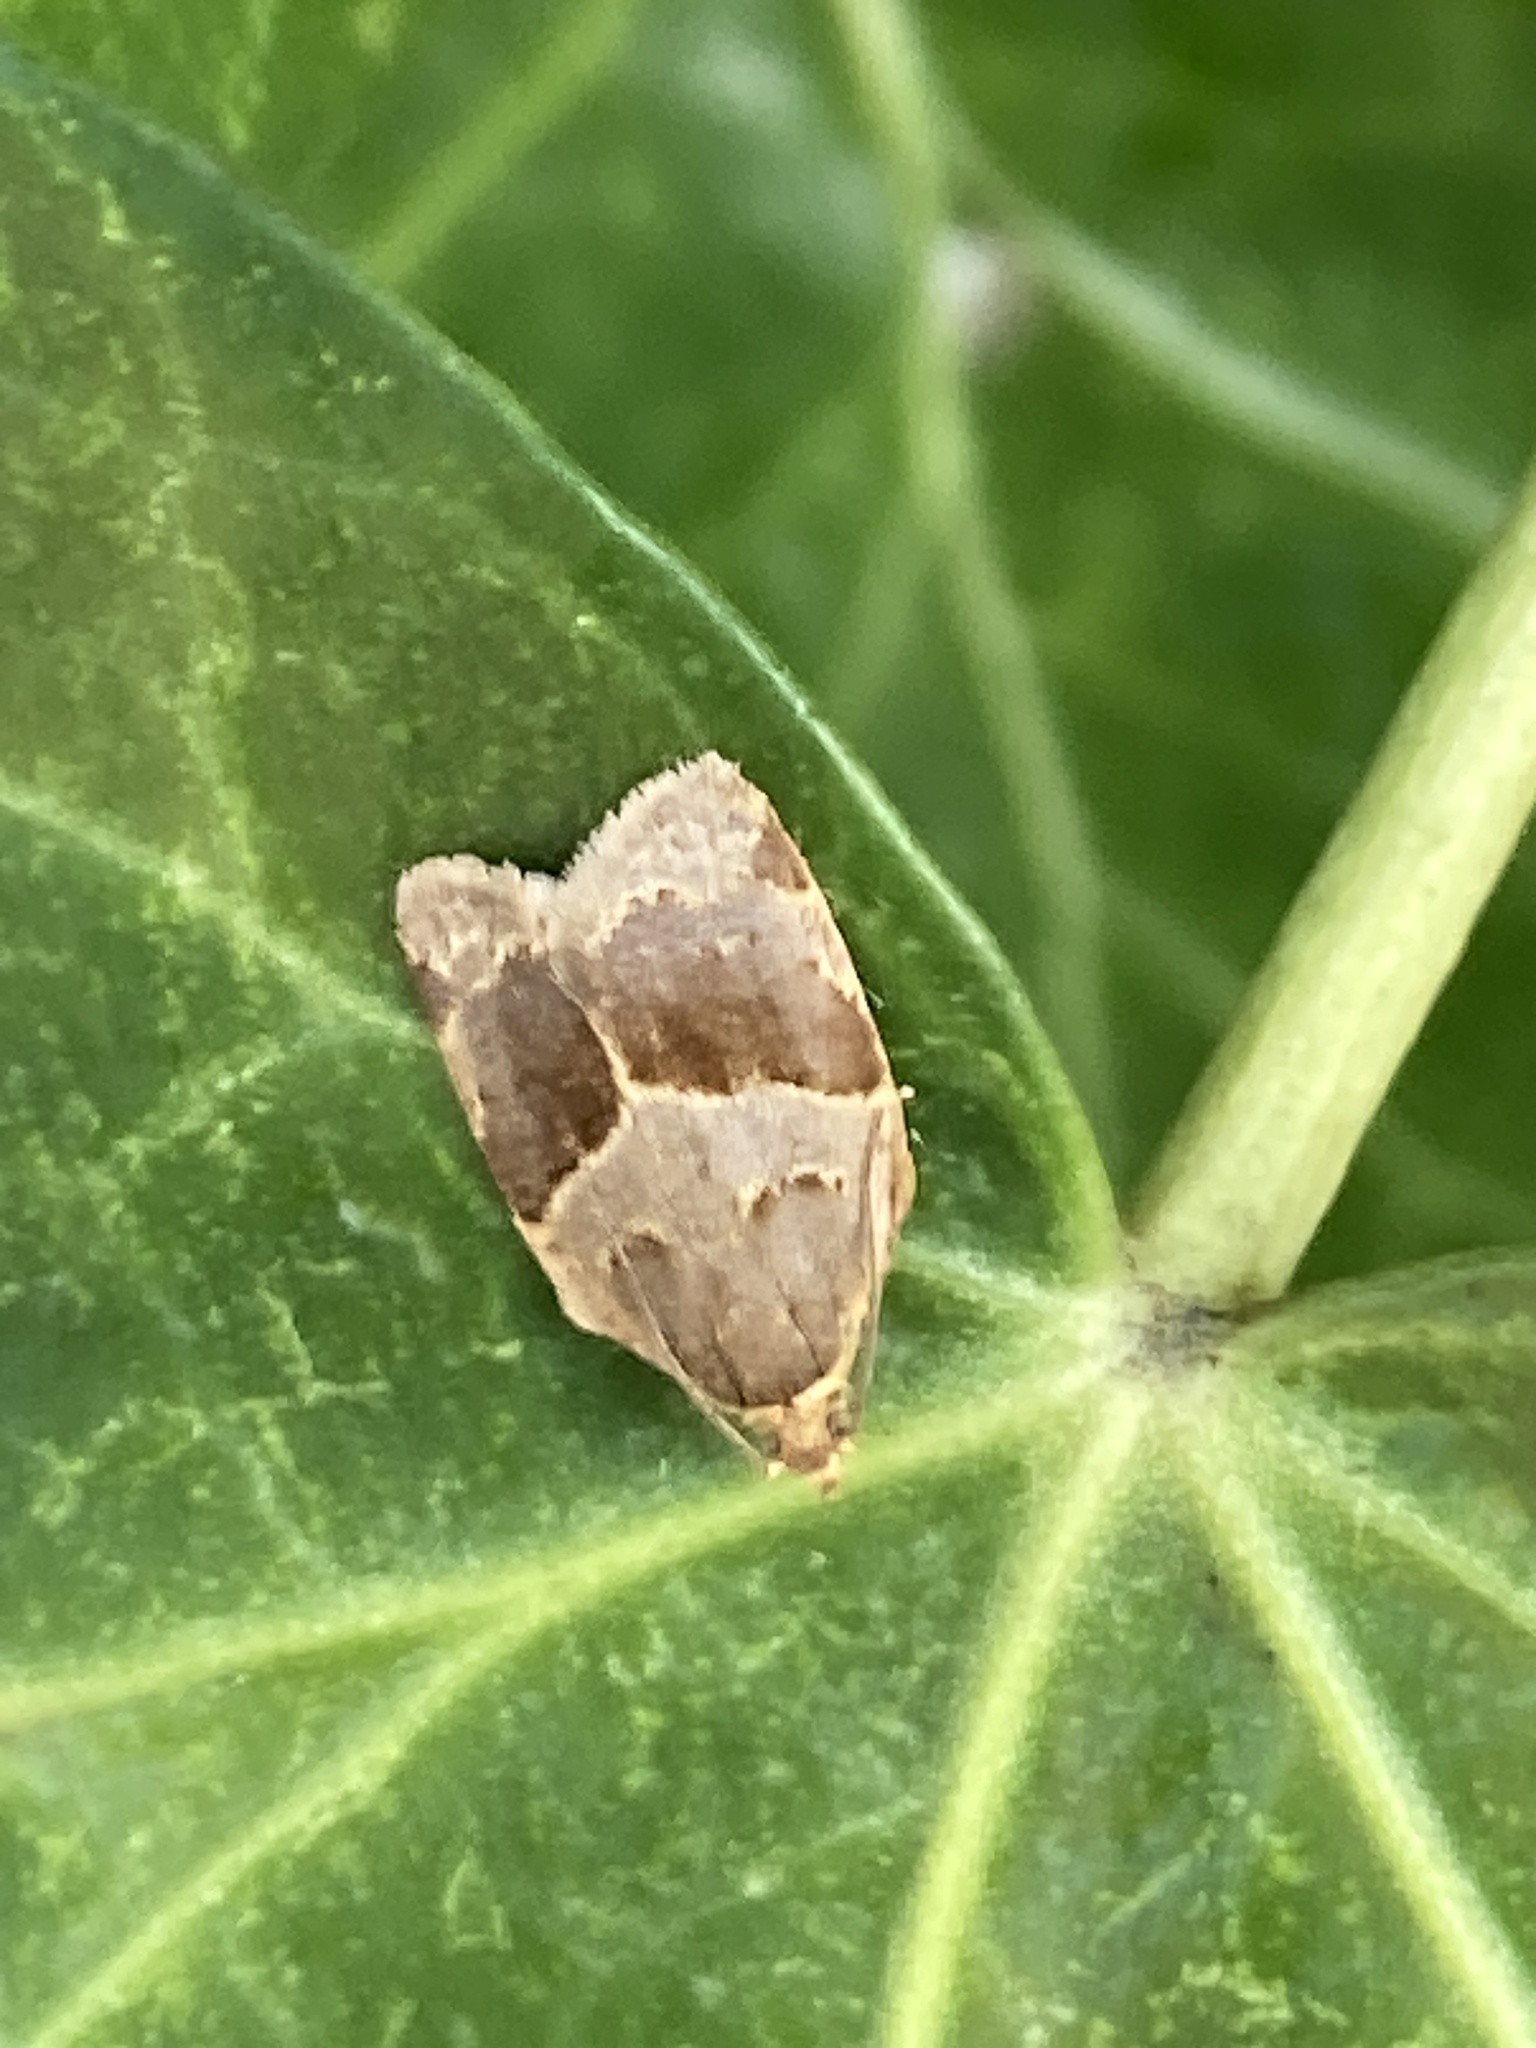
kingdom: Animalia
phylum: Arthropoda
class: Insecta
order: Lepidoptera
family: Tortricidae
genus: Clepsis
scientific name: Clepsis dumicolana
